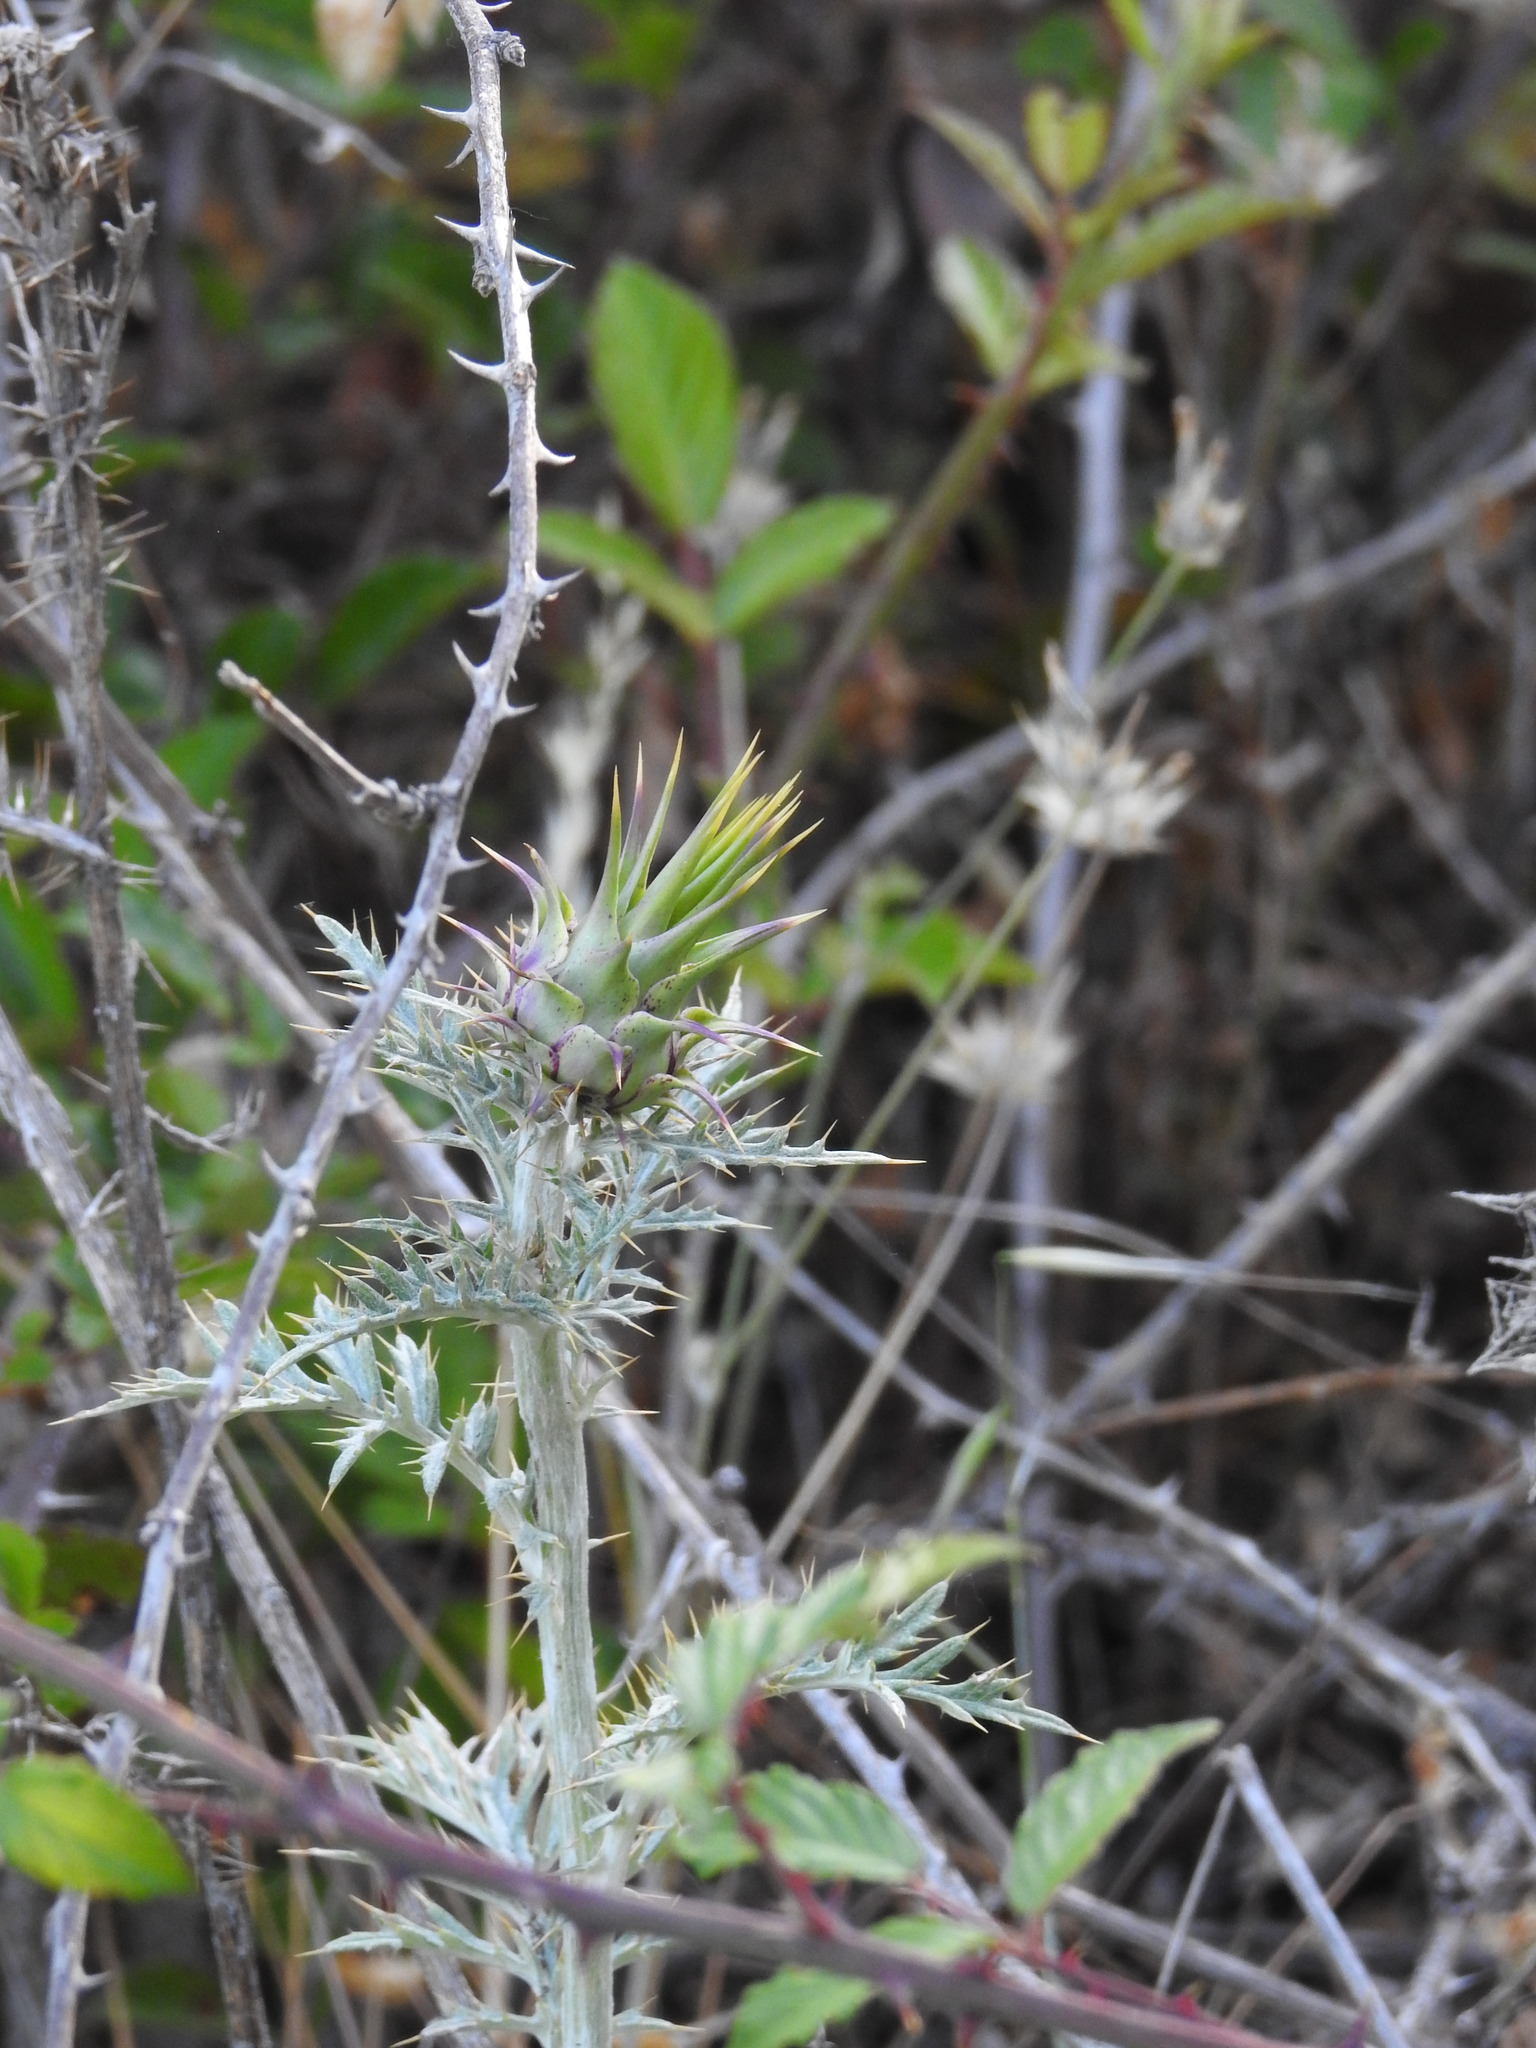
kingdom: Plantae
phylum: Tracheophyta
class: Magnoliopsida
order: Asterales
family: Asteraceae
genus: Cynara
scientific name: Cynara algarbiensis
